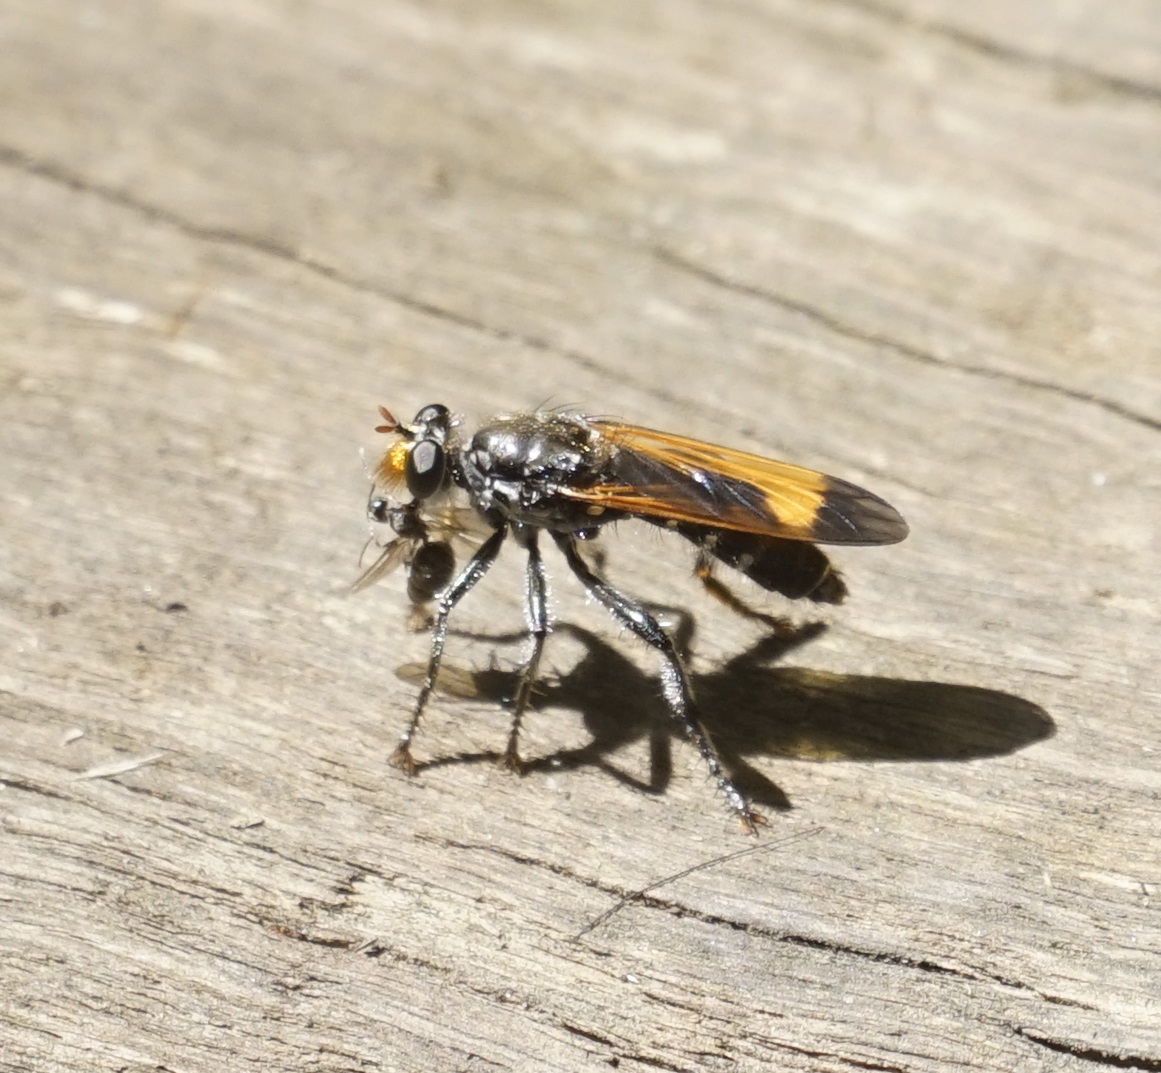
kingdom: Animalia
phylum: Arthropoda
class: Insecta
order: Diptera
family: Asilidae
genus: Orthogonis
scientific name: Orthogonis ornatipennis
